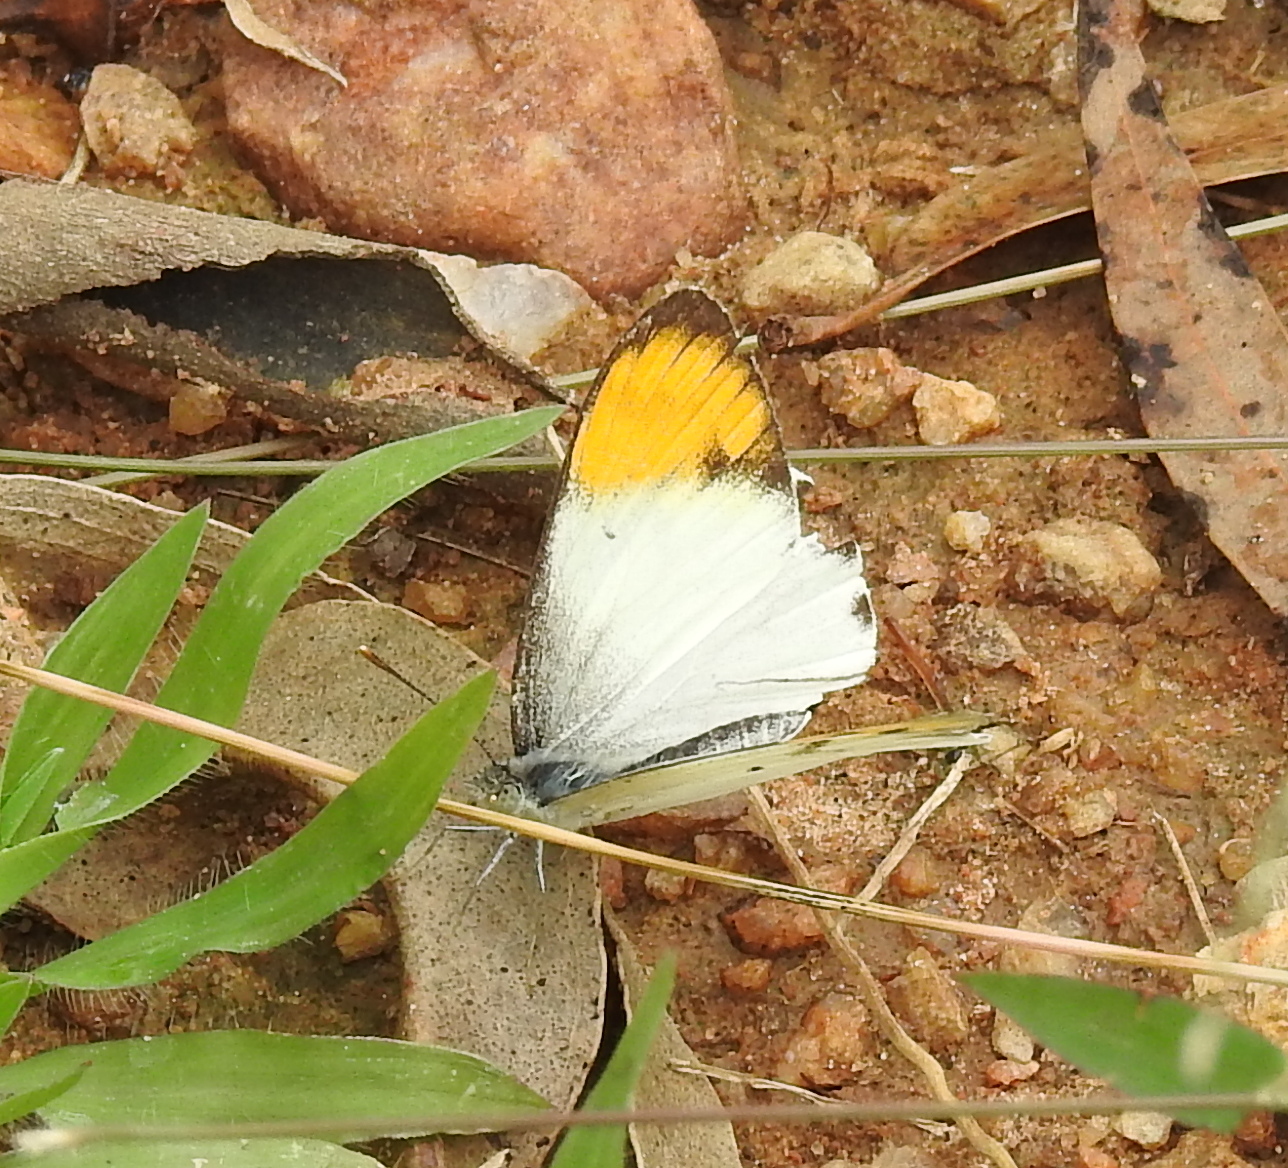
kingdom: Animalia
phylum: Arthropoda
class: Insecta
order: Lepidoptera
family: Pieridae
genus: Colotis
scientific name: Colotis aurora
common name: Plain orange-tip
